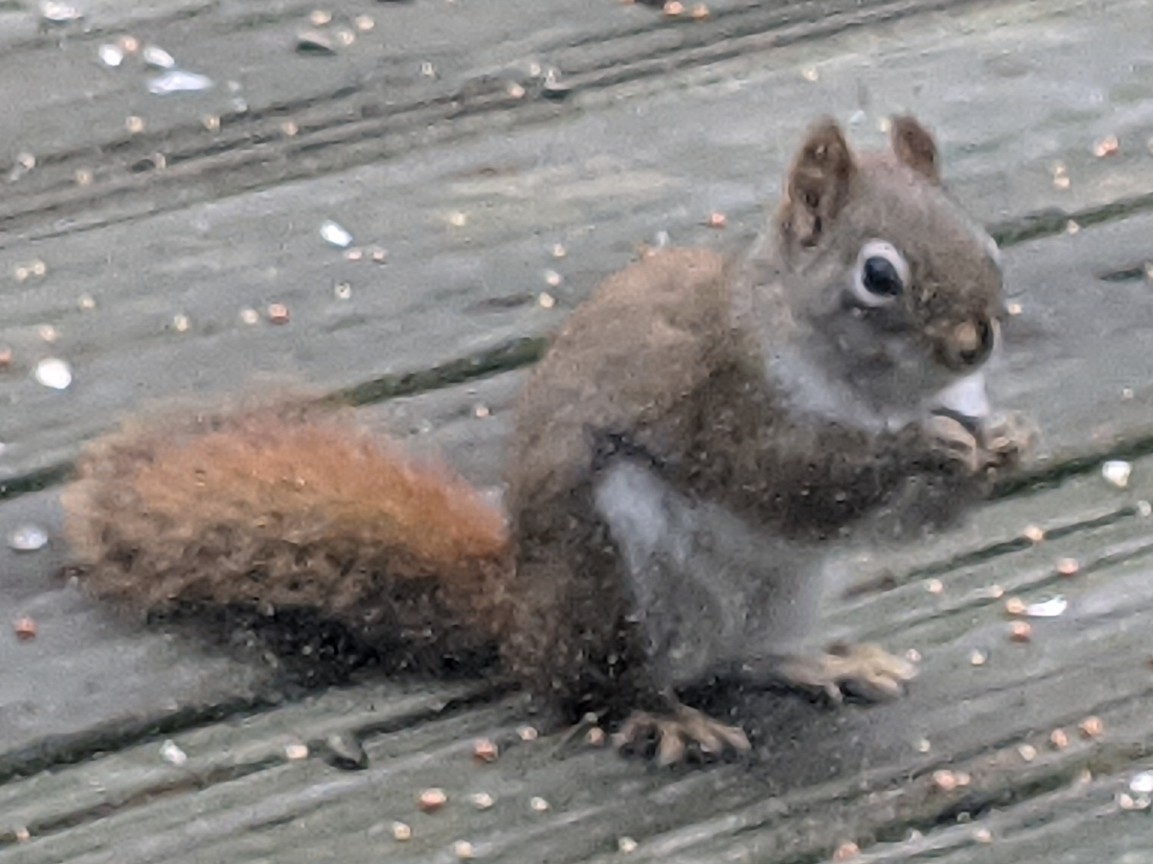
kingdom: Animalia
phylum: Chordata
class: Mammalia
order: Rodentia
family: Sciuridae
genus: Tamiasciurus
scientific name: Tamiasciurus hudsonicus
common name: Red squirrel
